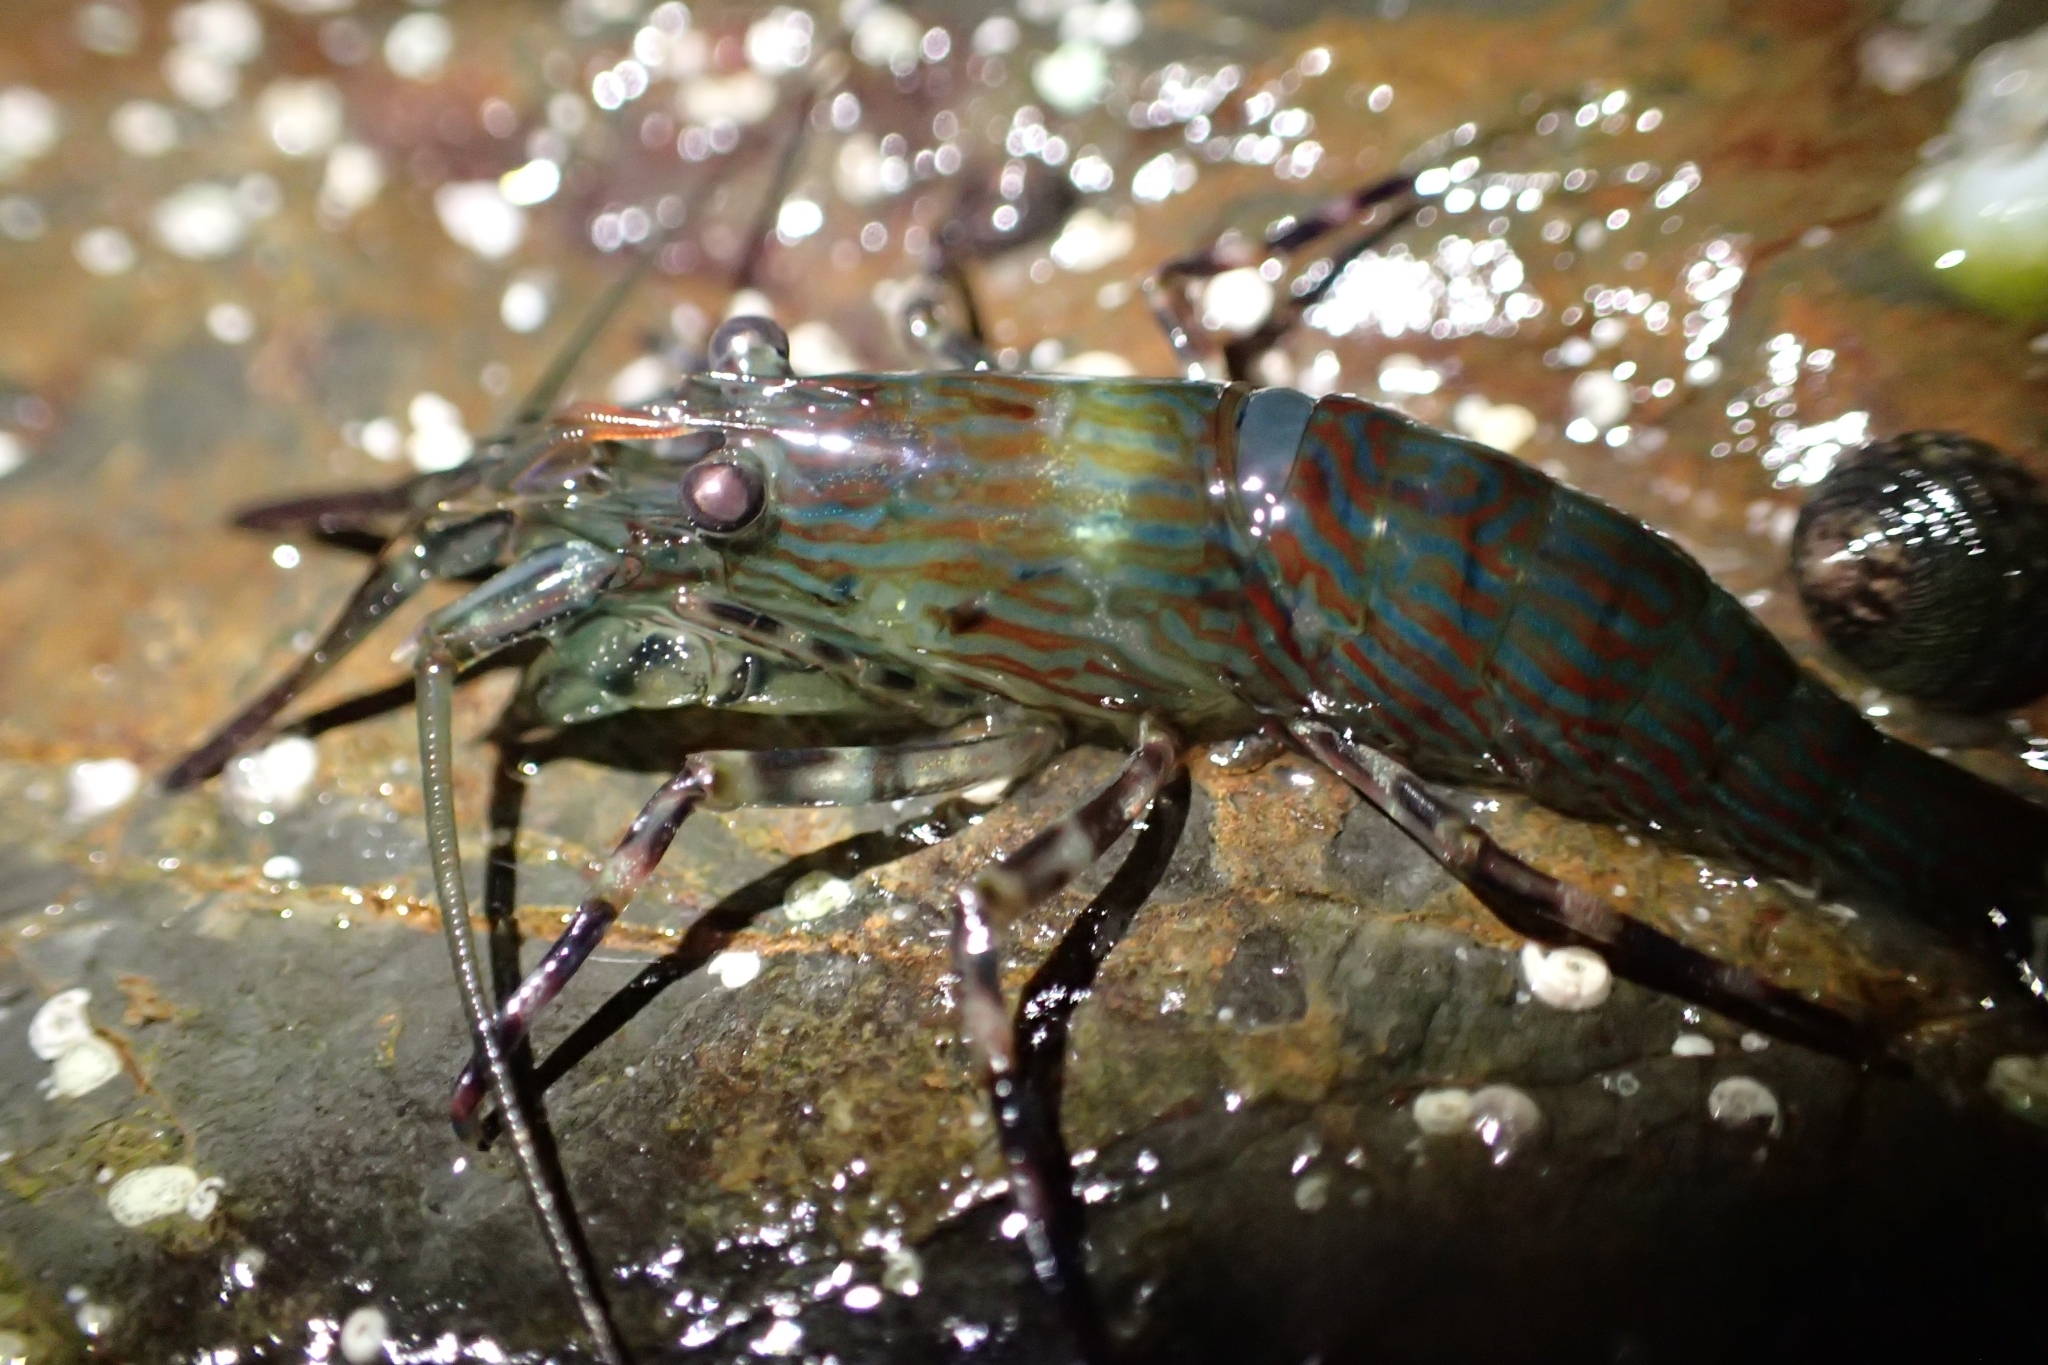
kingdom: Animalia
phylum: Arthropoda
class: Malacostraca
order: Decapoda
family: Hippolytidae
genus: Alope
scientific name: Alope spinifrons
